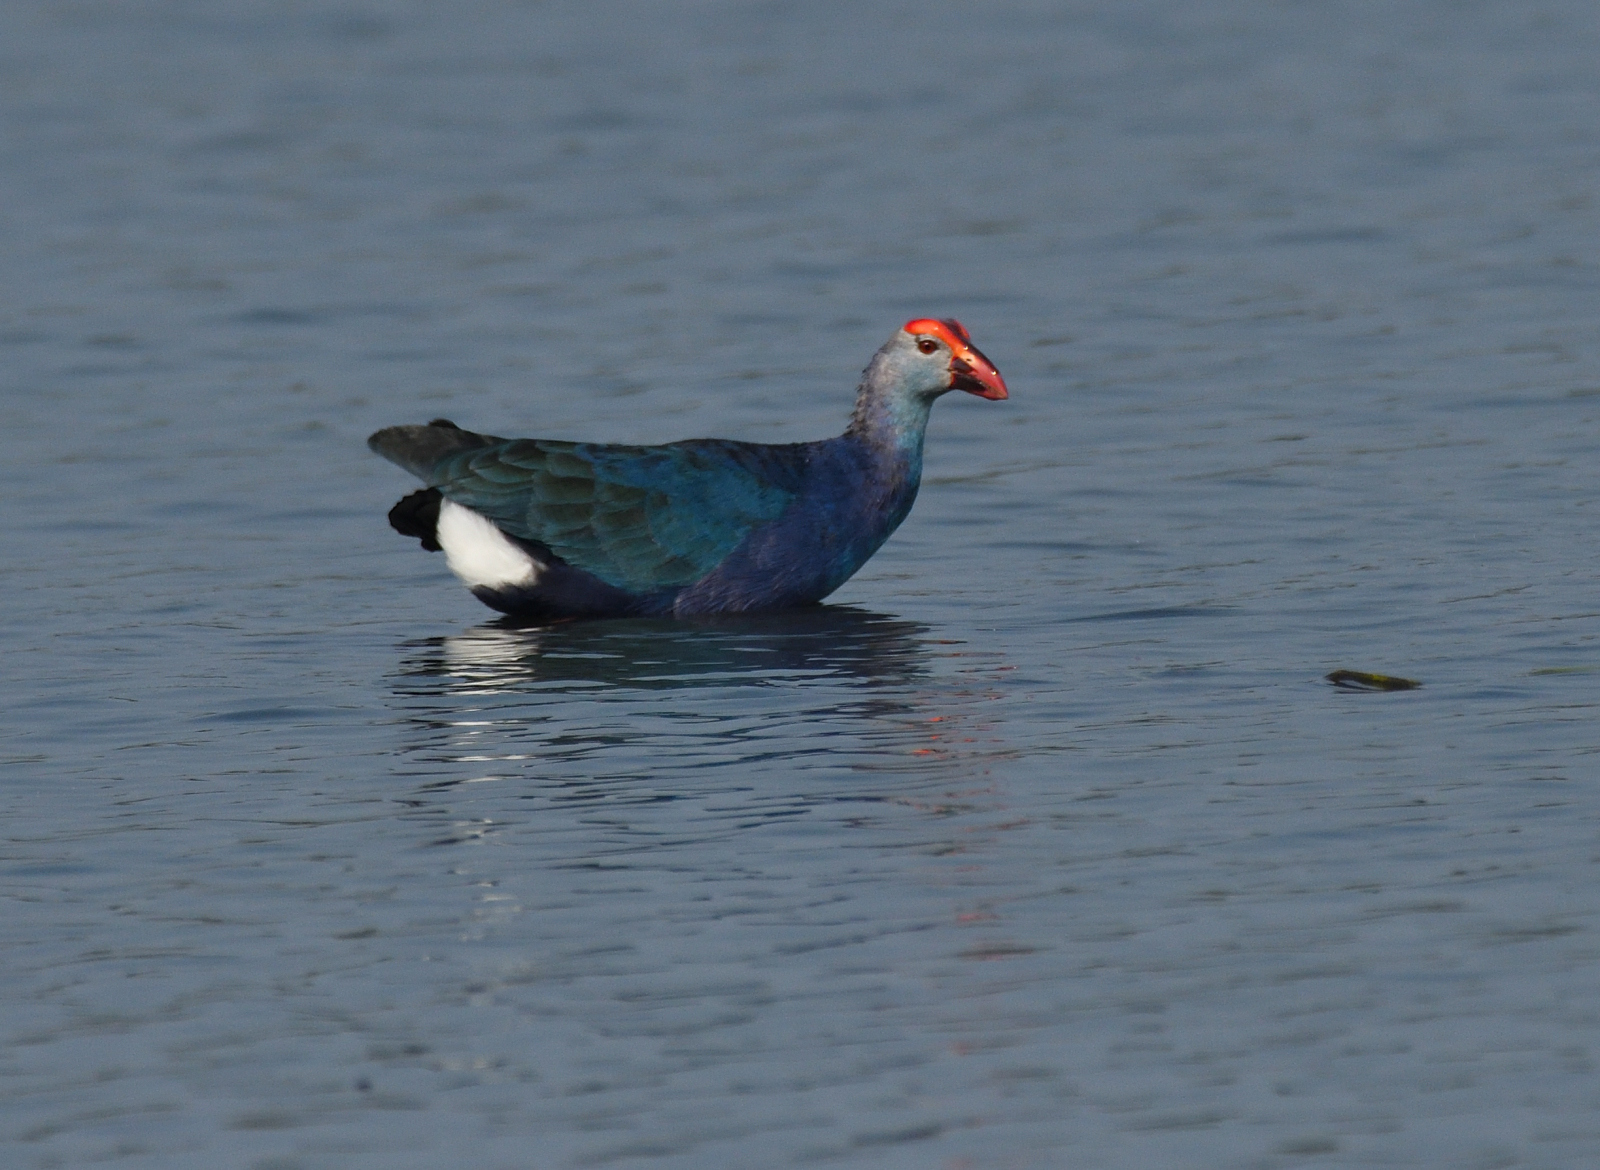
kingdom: Animalia
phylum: Chordata
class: Aves
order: Gruiformes
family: Rallidae
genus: Porphyrio
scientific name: Porphyrio porphyrio
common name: Purple swamphen
